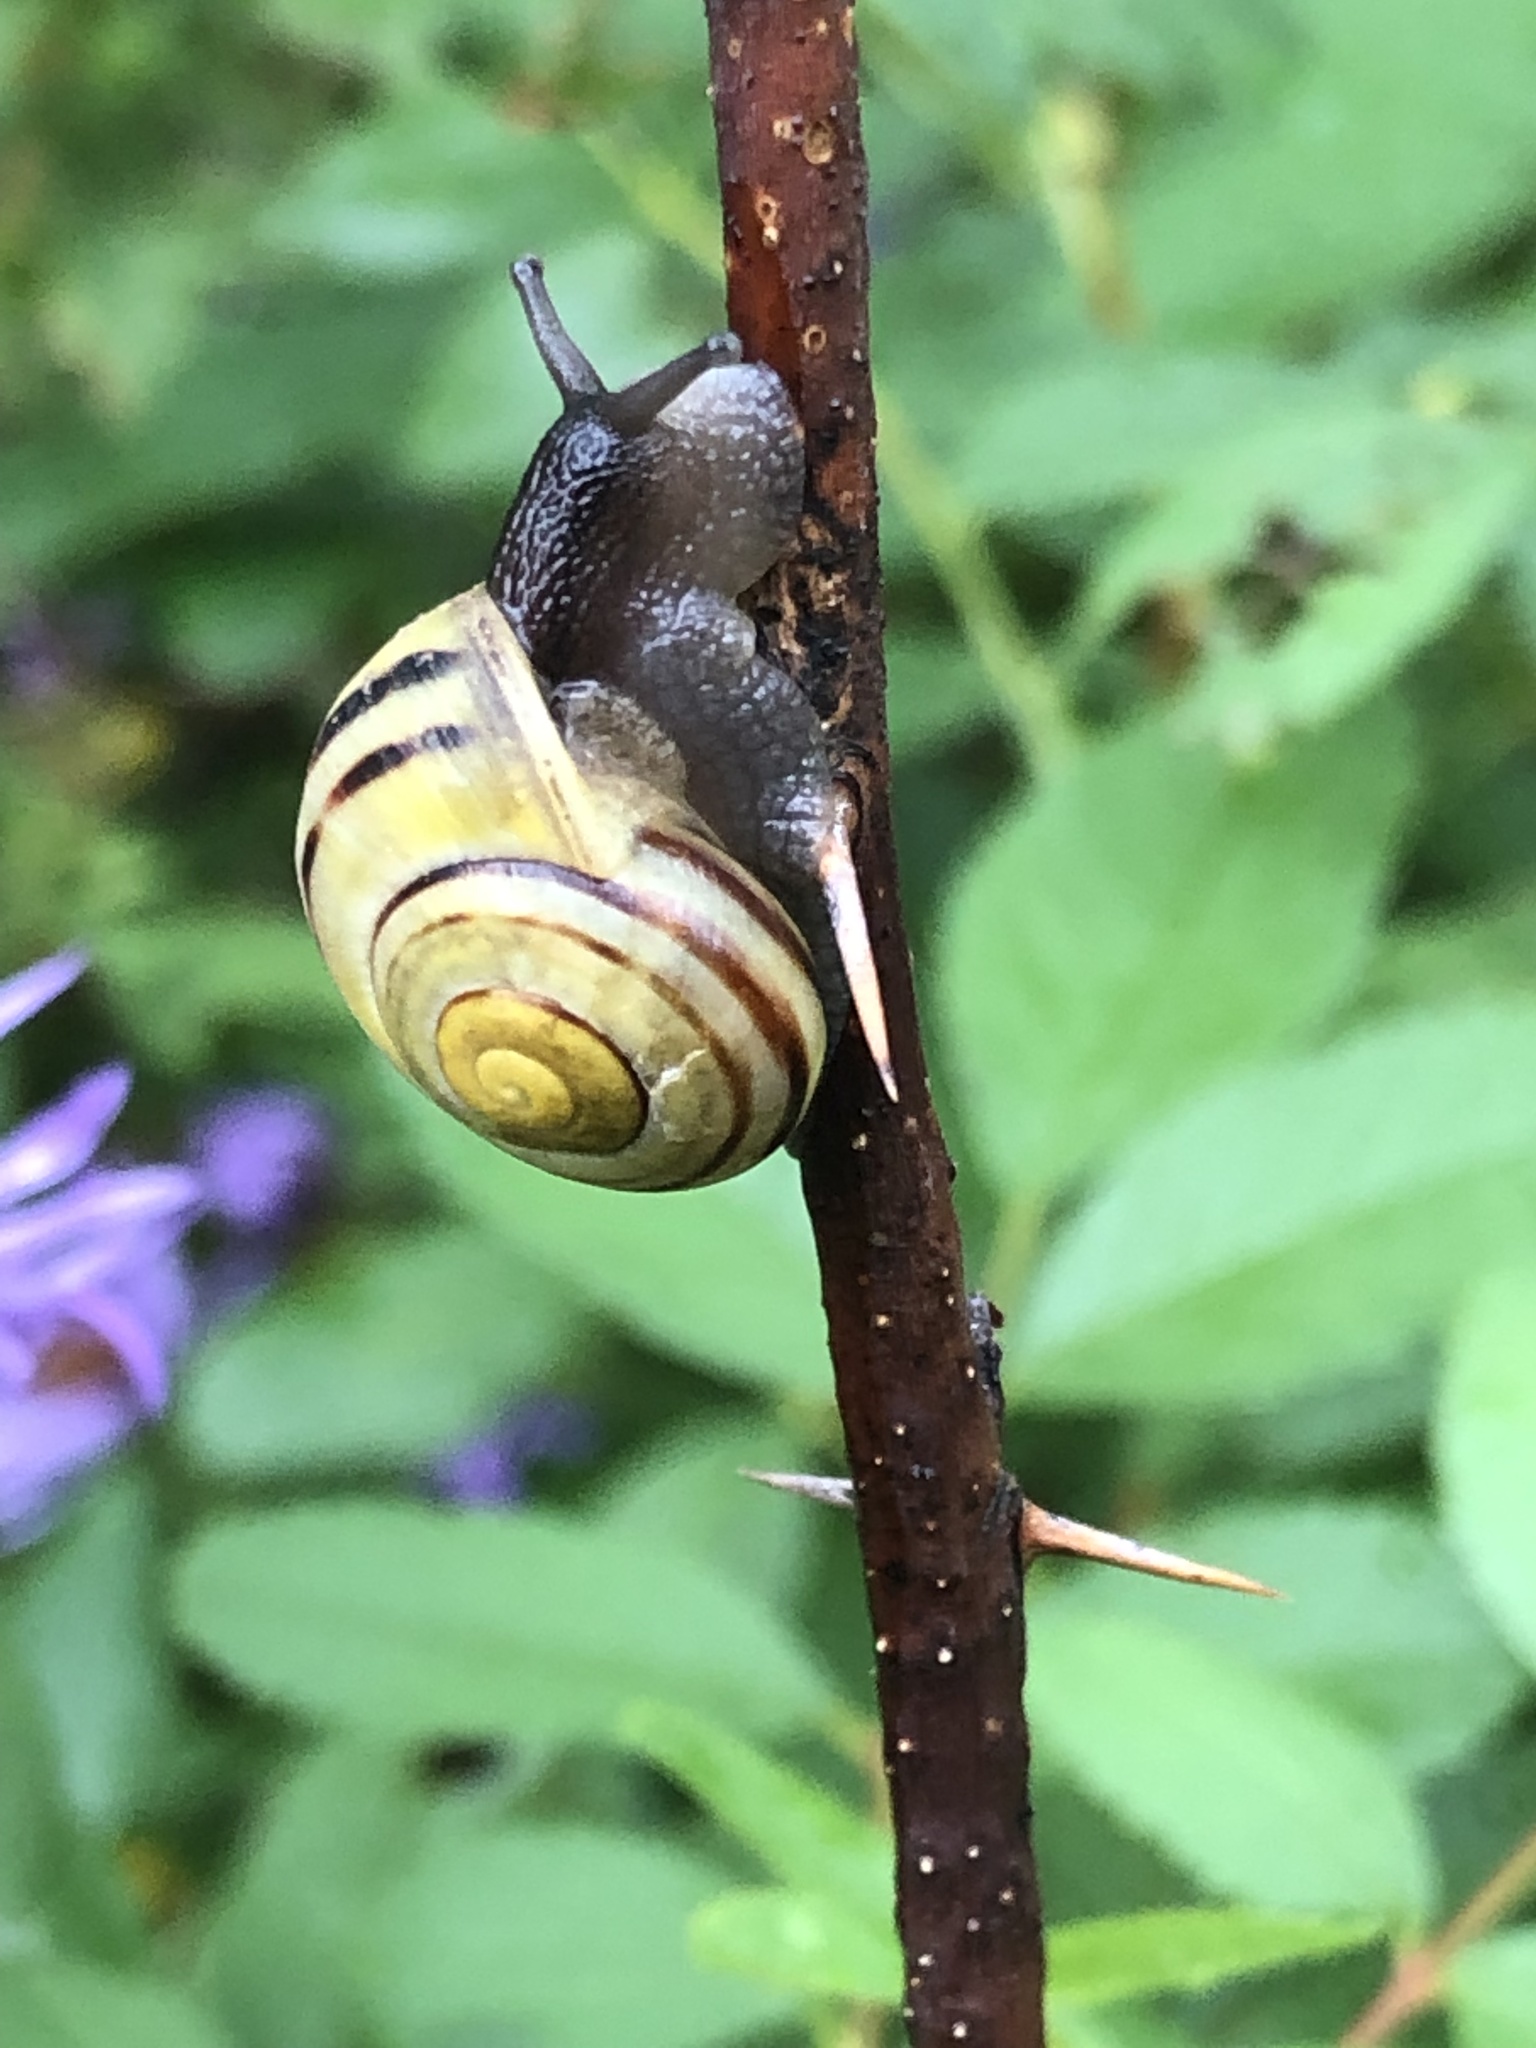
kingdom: Animalia
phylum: Mollusca
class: Gastropoda
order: Stylommatophora
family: Helicidae
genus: Cepaea
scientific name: Cepaea
